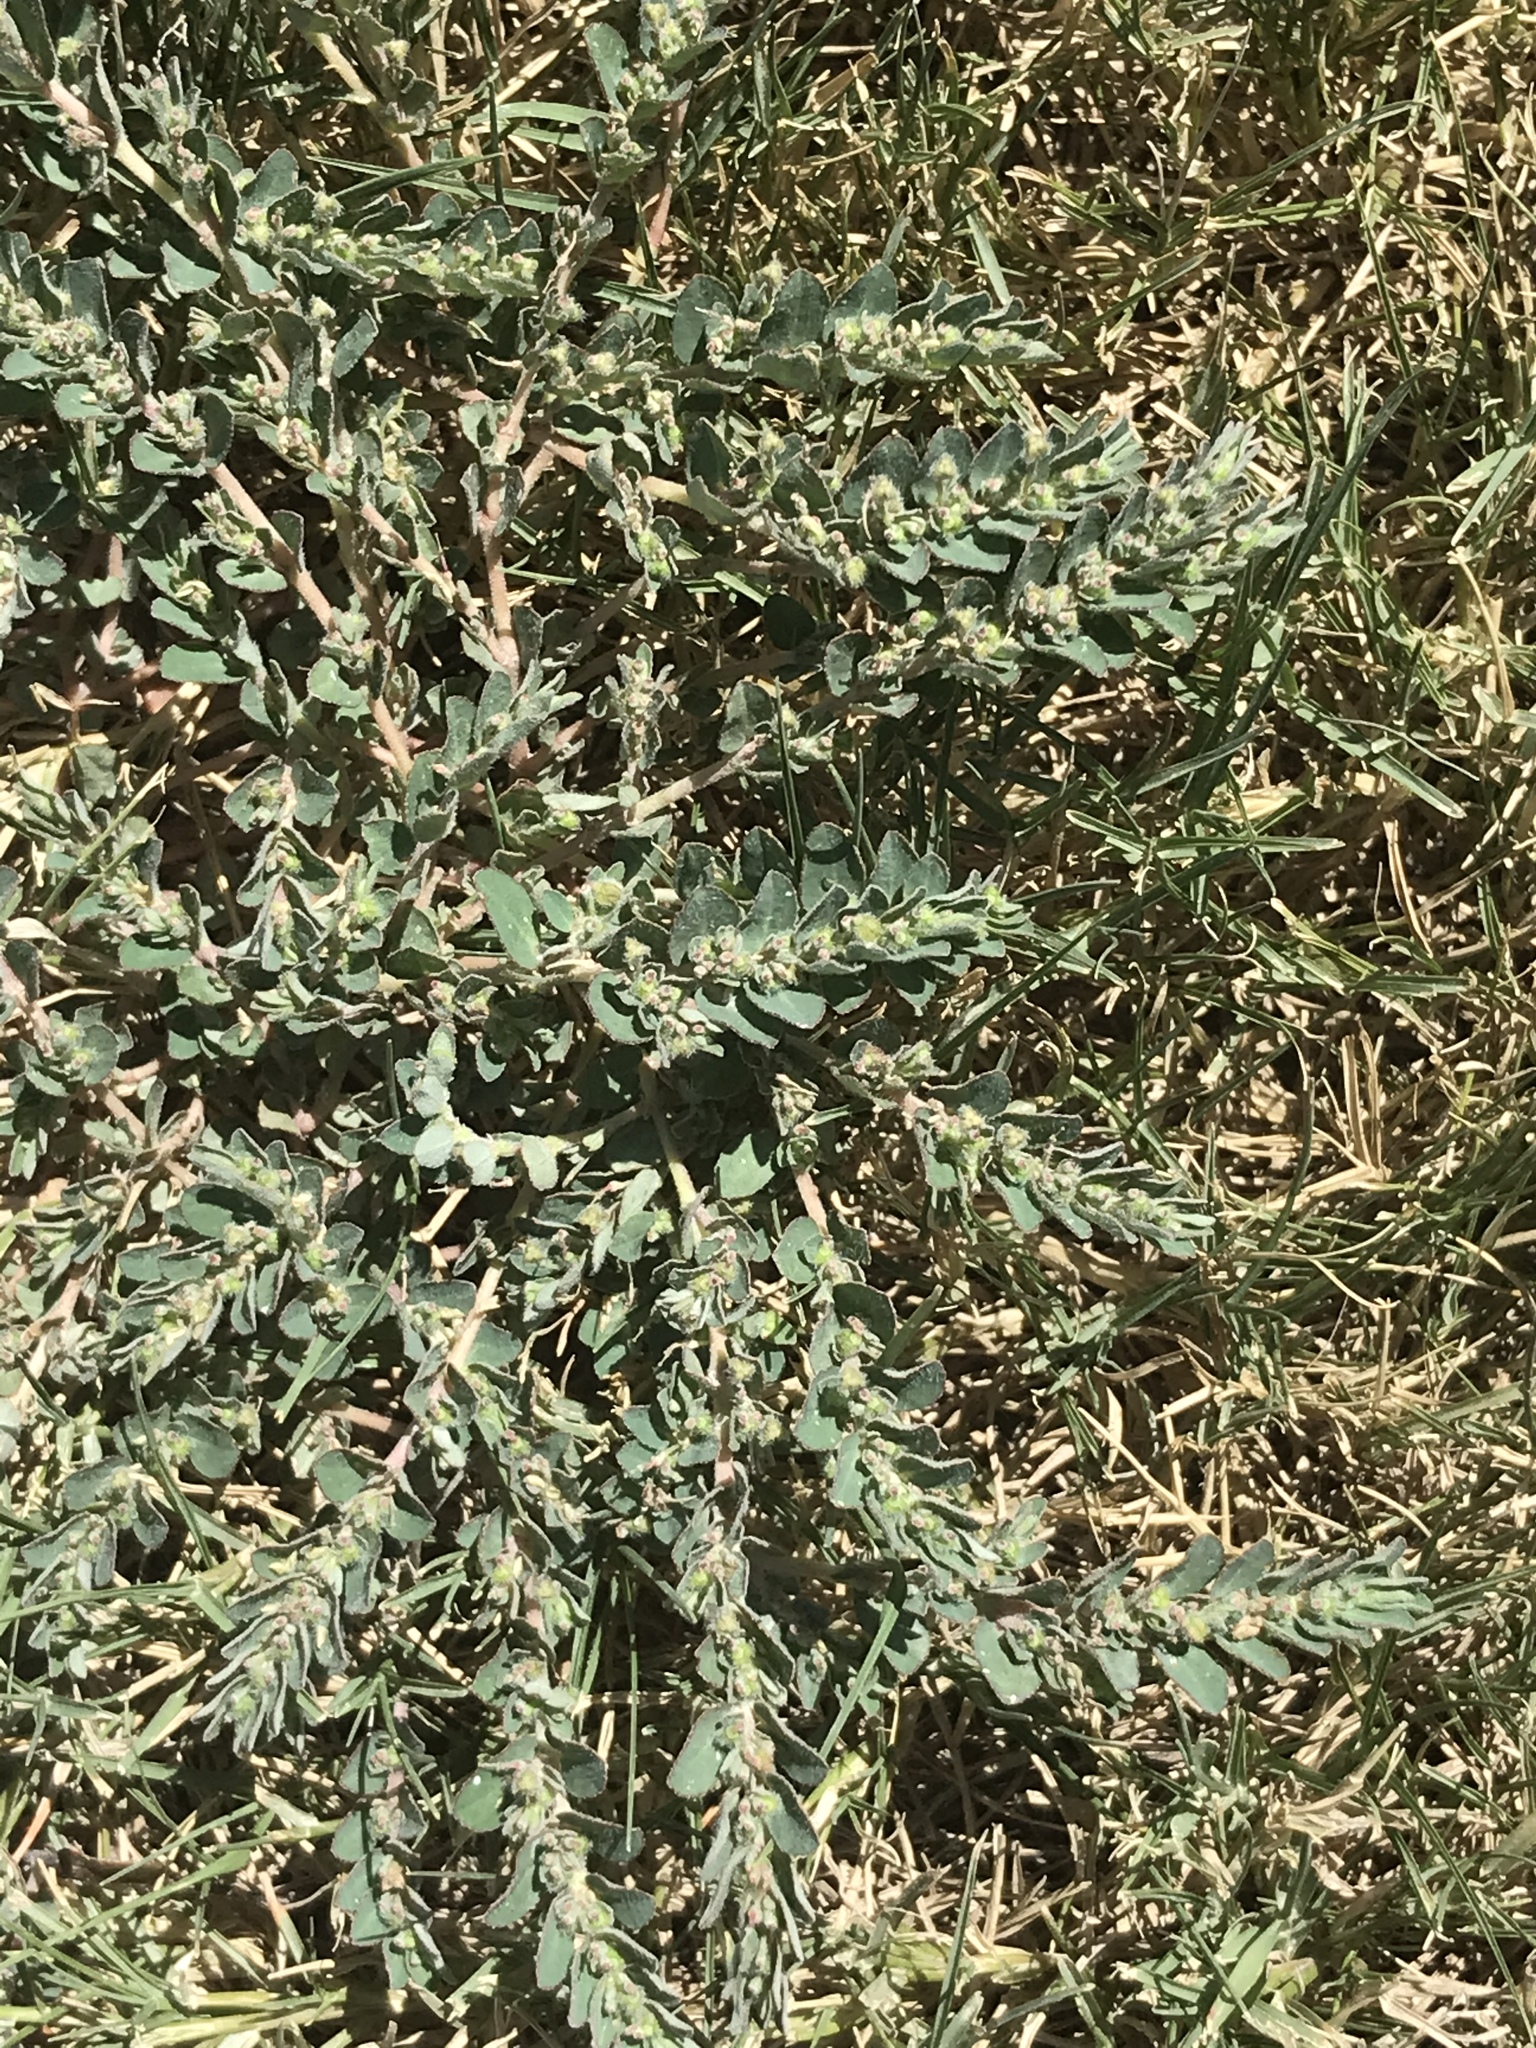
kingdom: Plantae
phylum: Tracheophyta
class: Magnoliopsida
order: Malpighiales
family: Euphorbiaceae
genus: Euphorbia
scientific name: Euphorbia prostrata
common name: Prostrate sandmat
